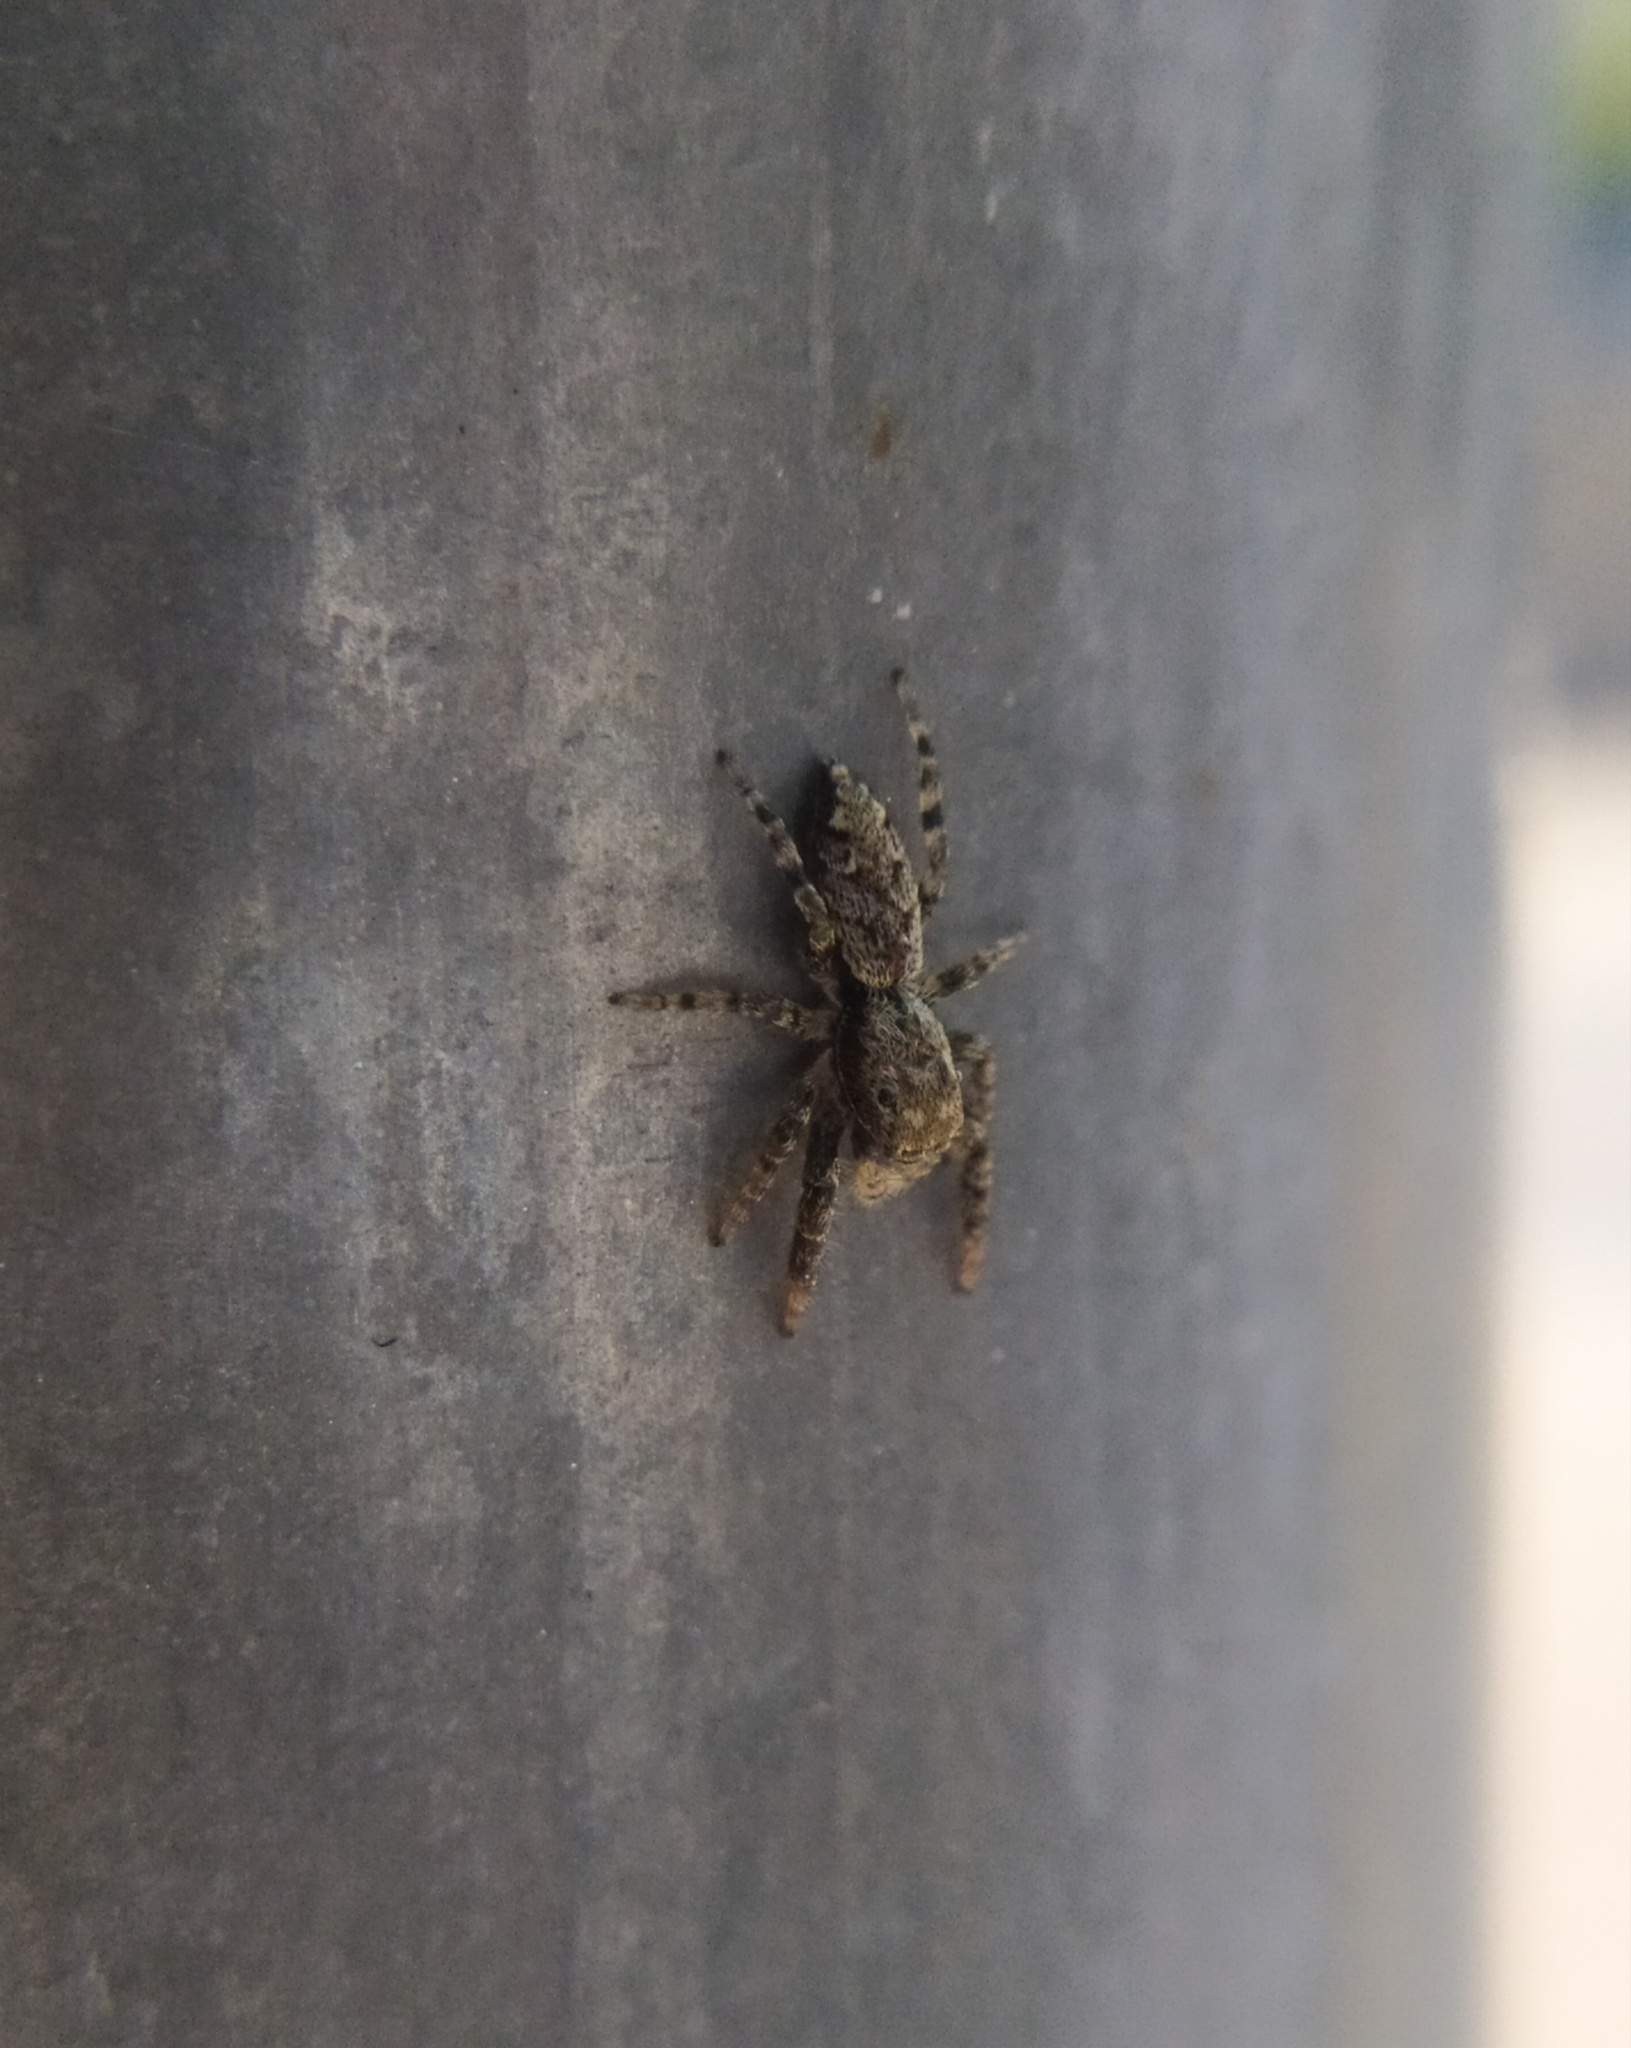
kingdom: Animalia
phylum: Arthropoda
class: Arachnida
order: Araneae
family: Salticidae
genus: Marpissa
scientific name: Marpissa muscosa
